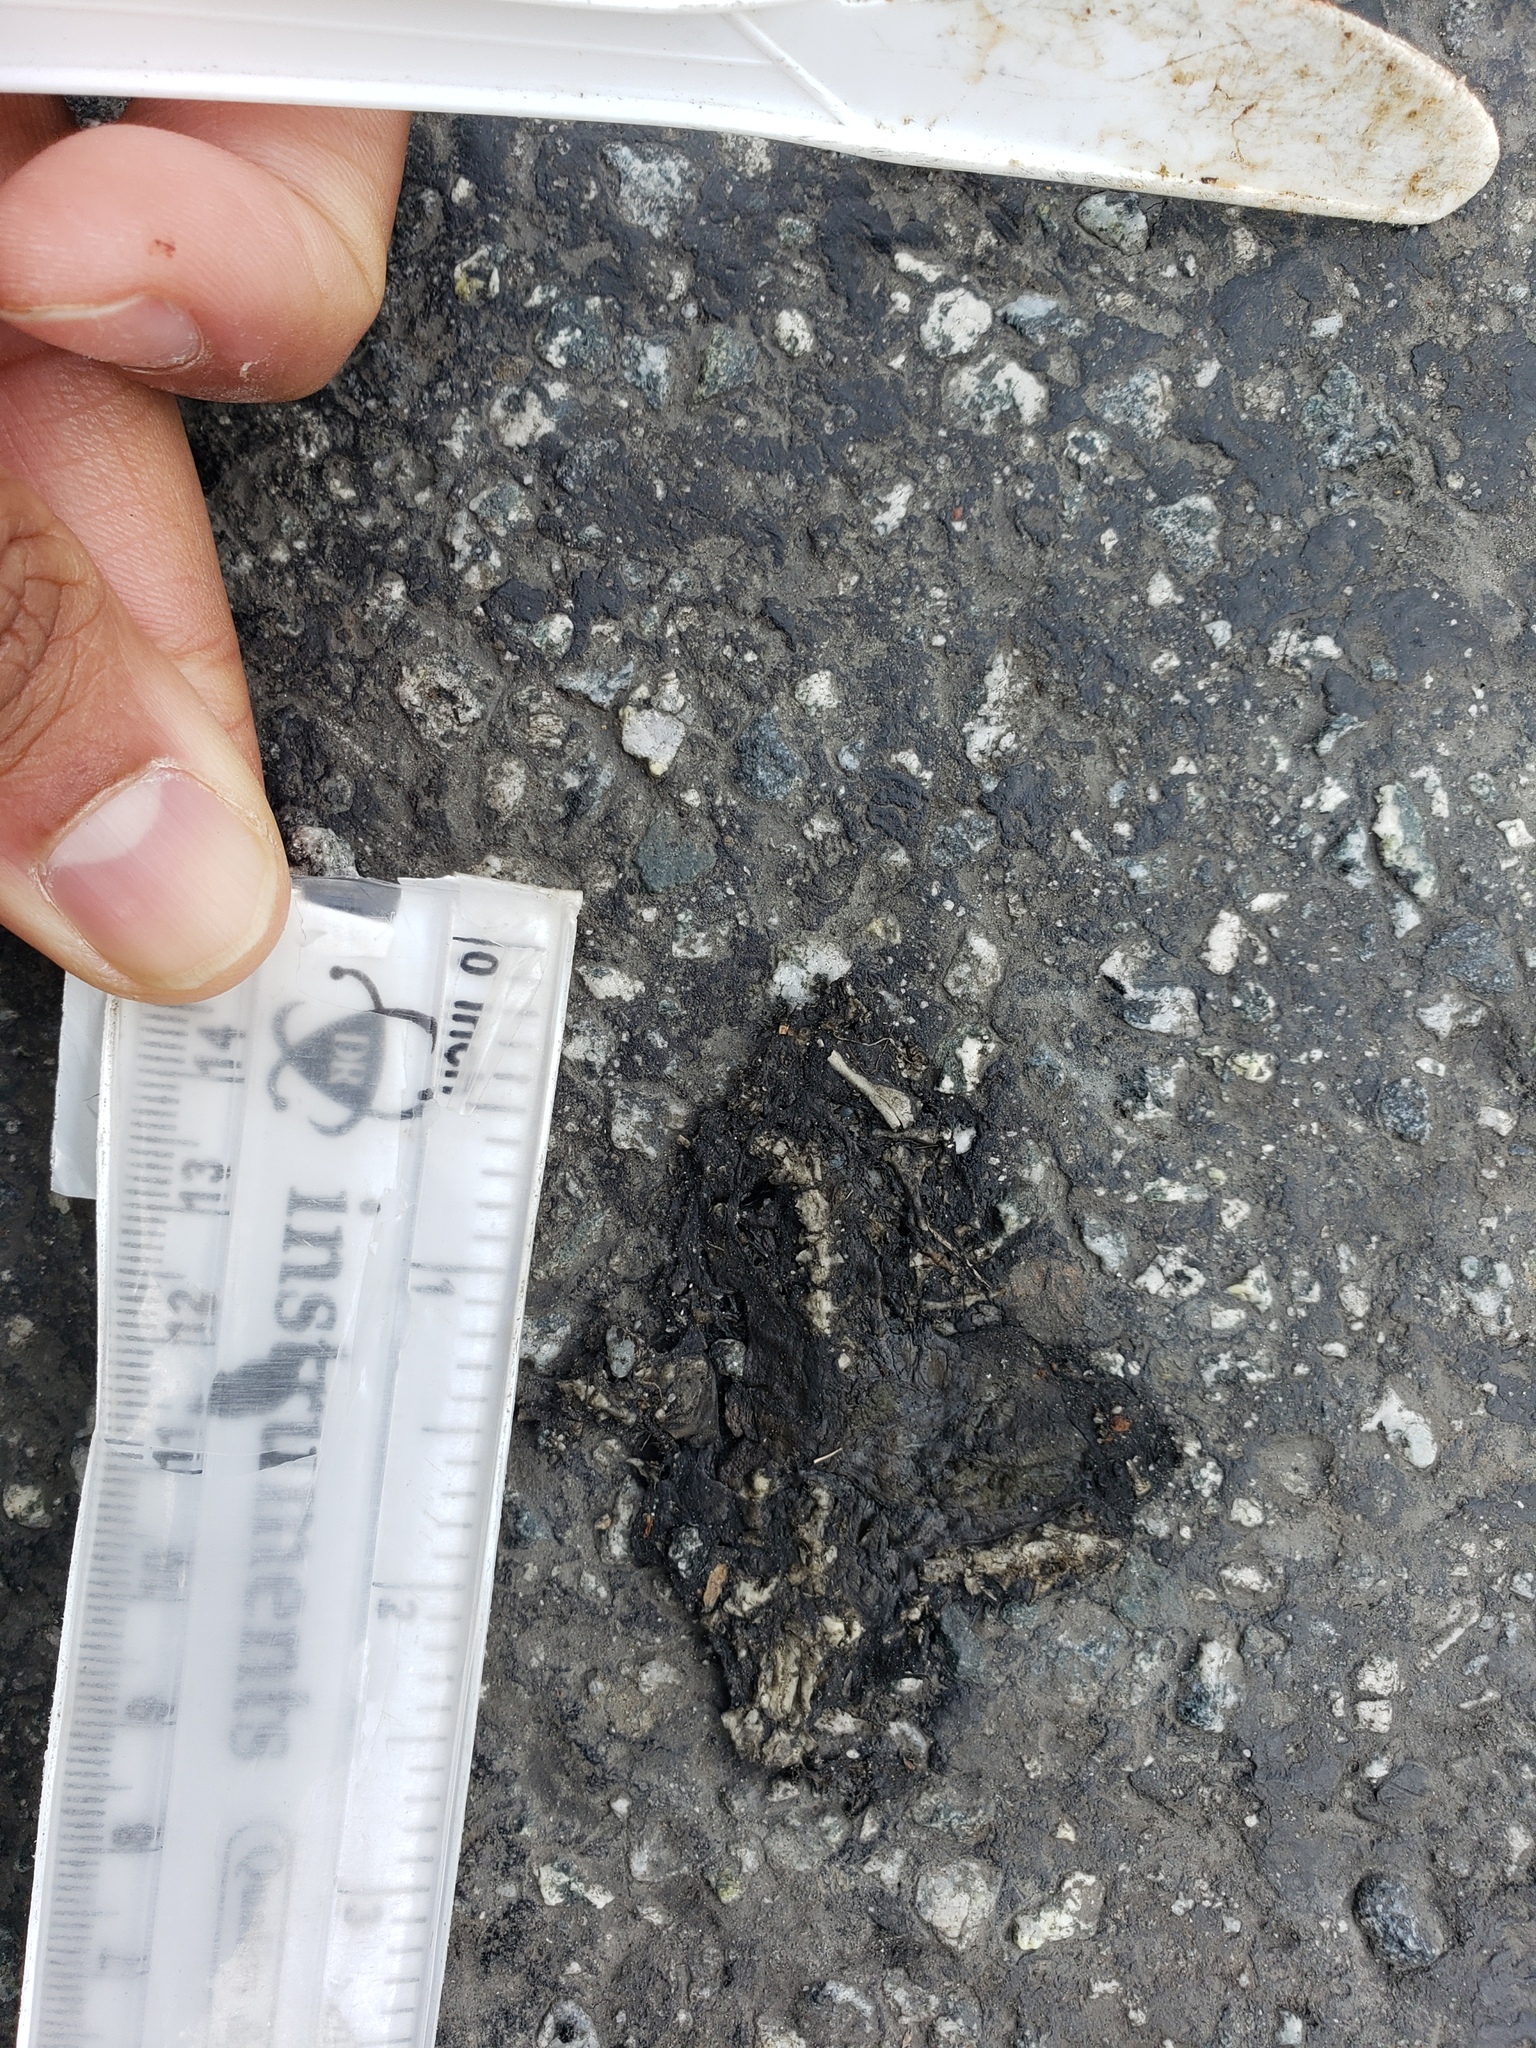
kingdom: Animalia
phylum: Chordata
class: Amphibia
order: Caudata
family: Salamandridae
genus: Taricha
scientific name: Taricha
